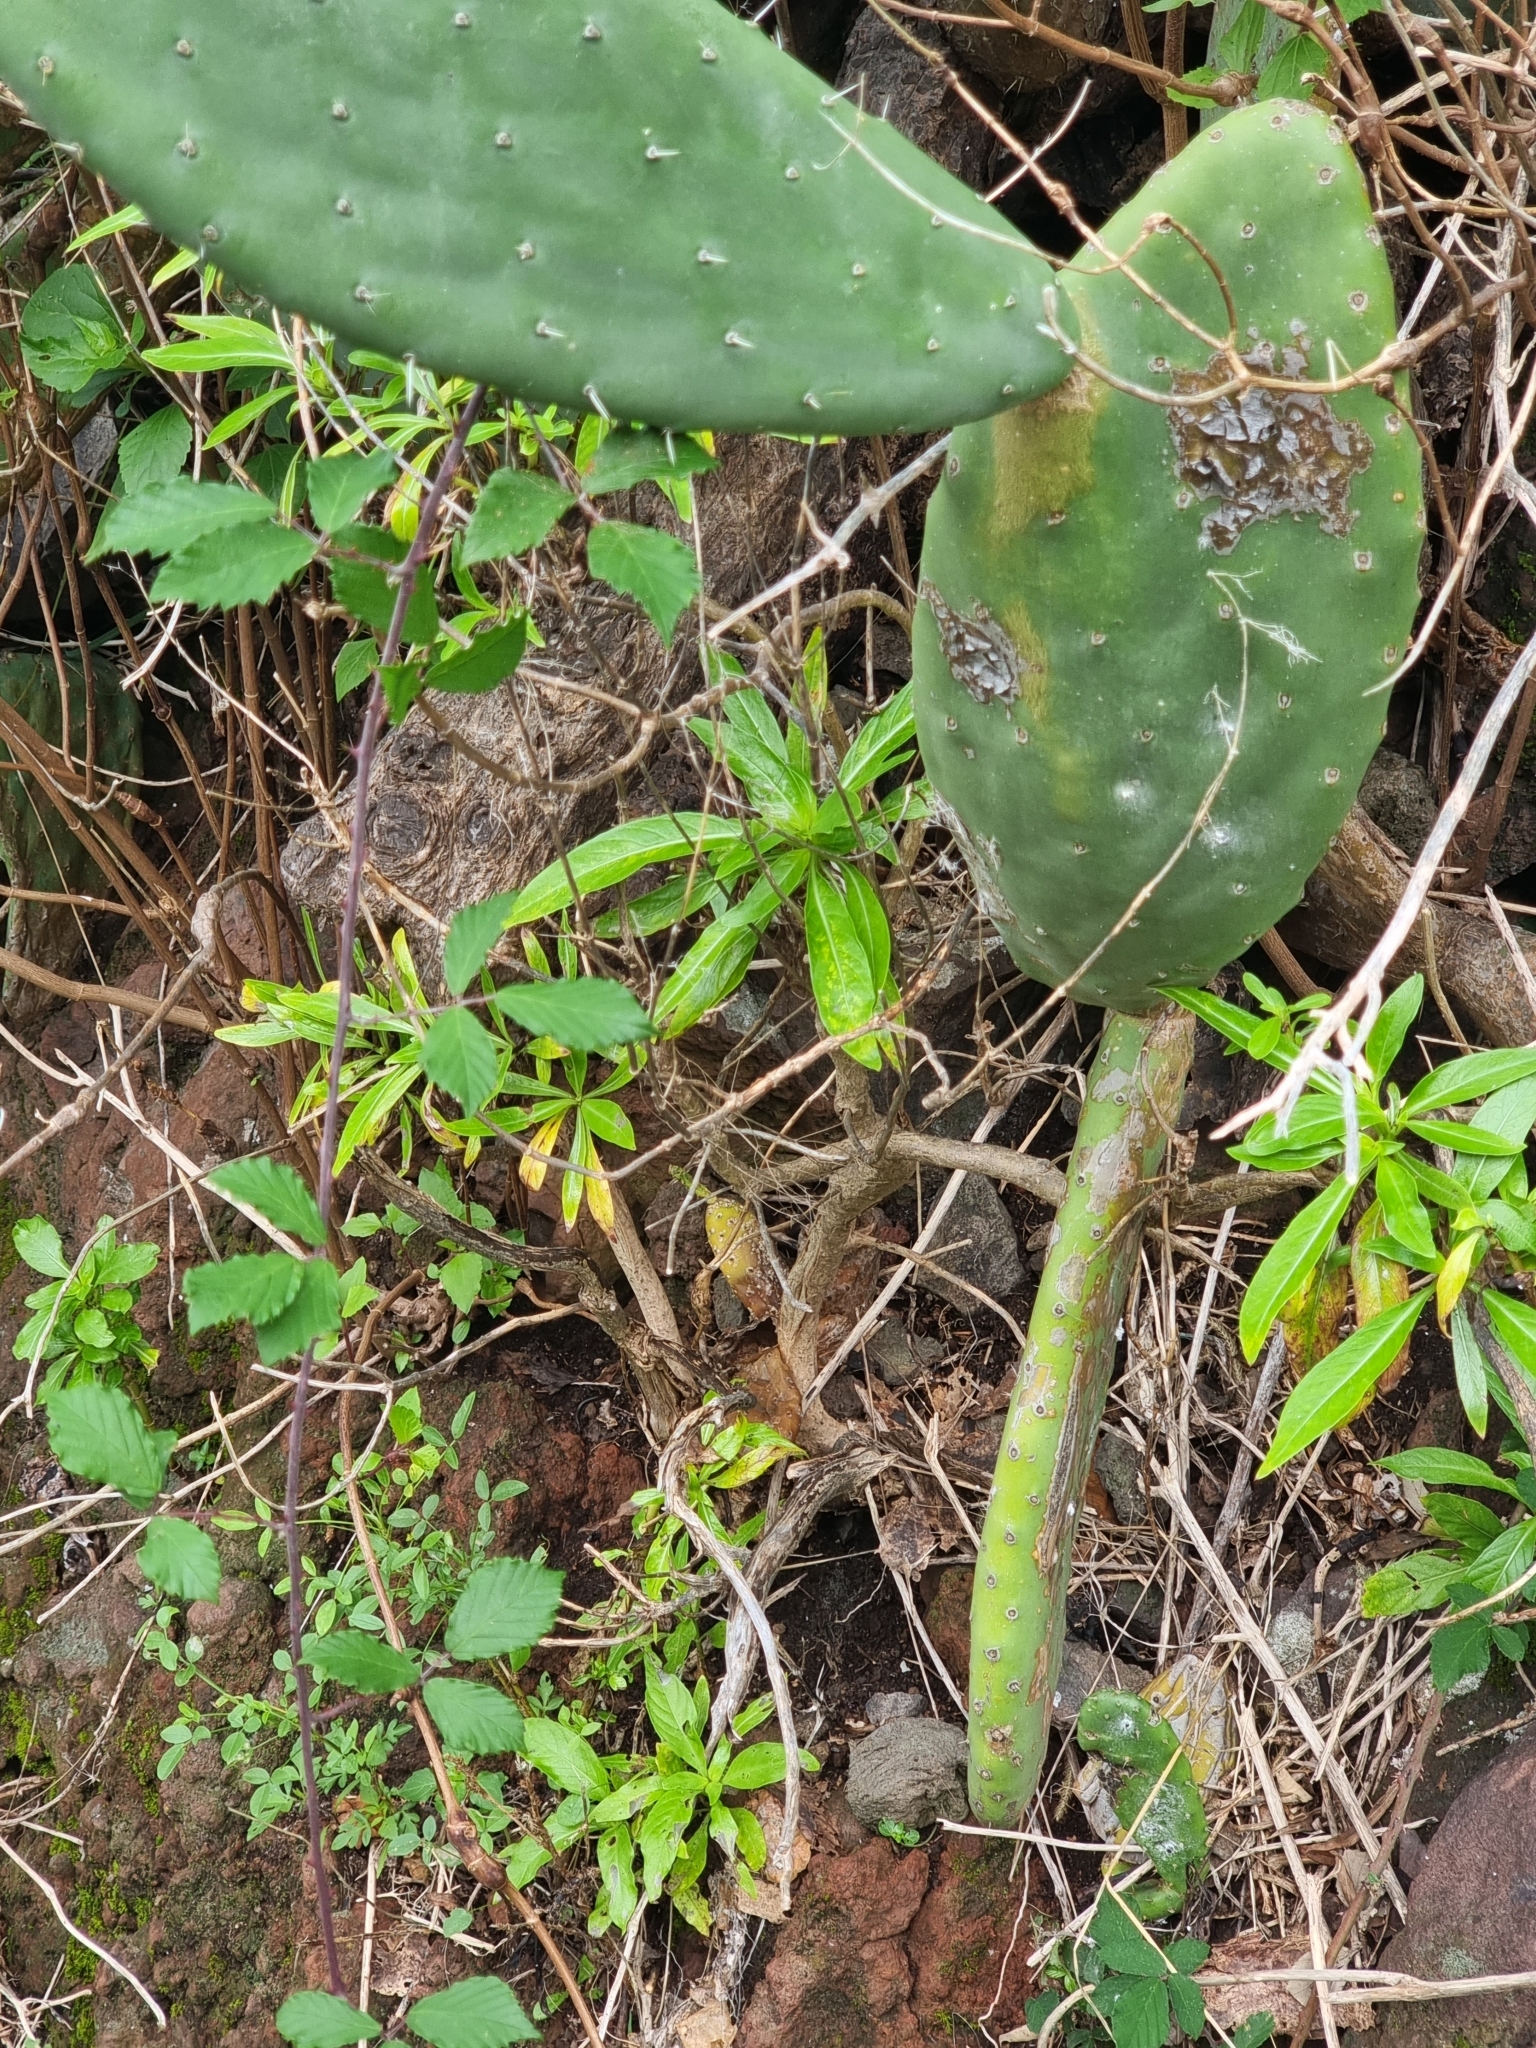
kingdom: Plantae
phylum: Tracheophyta
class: Magnoliopsida
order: Gentianales
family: Rubiaceae
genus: Phyllis
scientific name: Phyllis nobla
